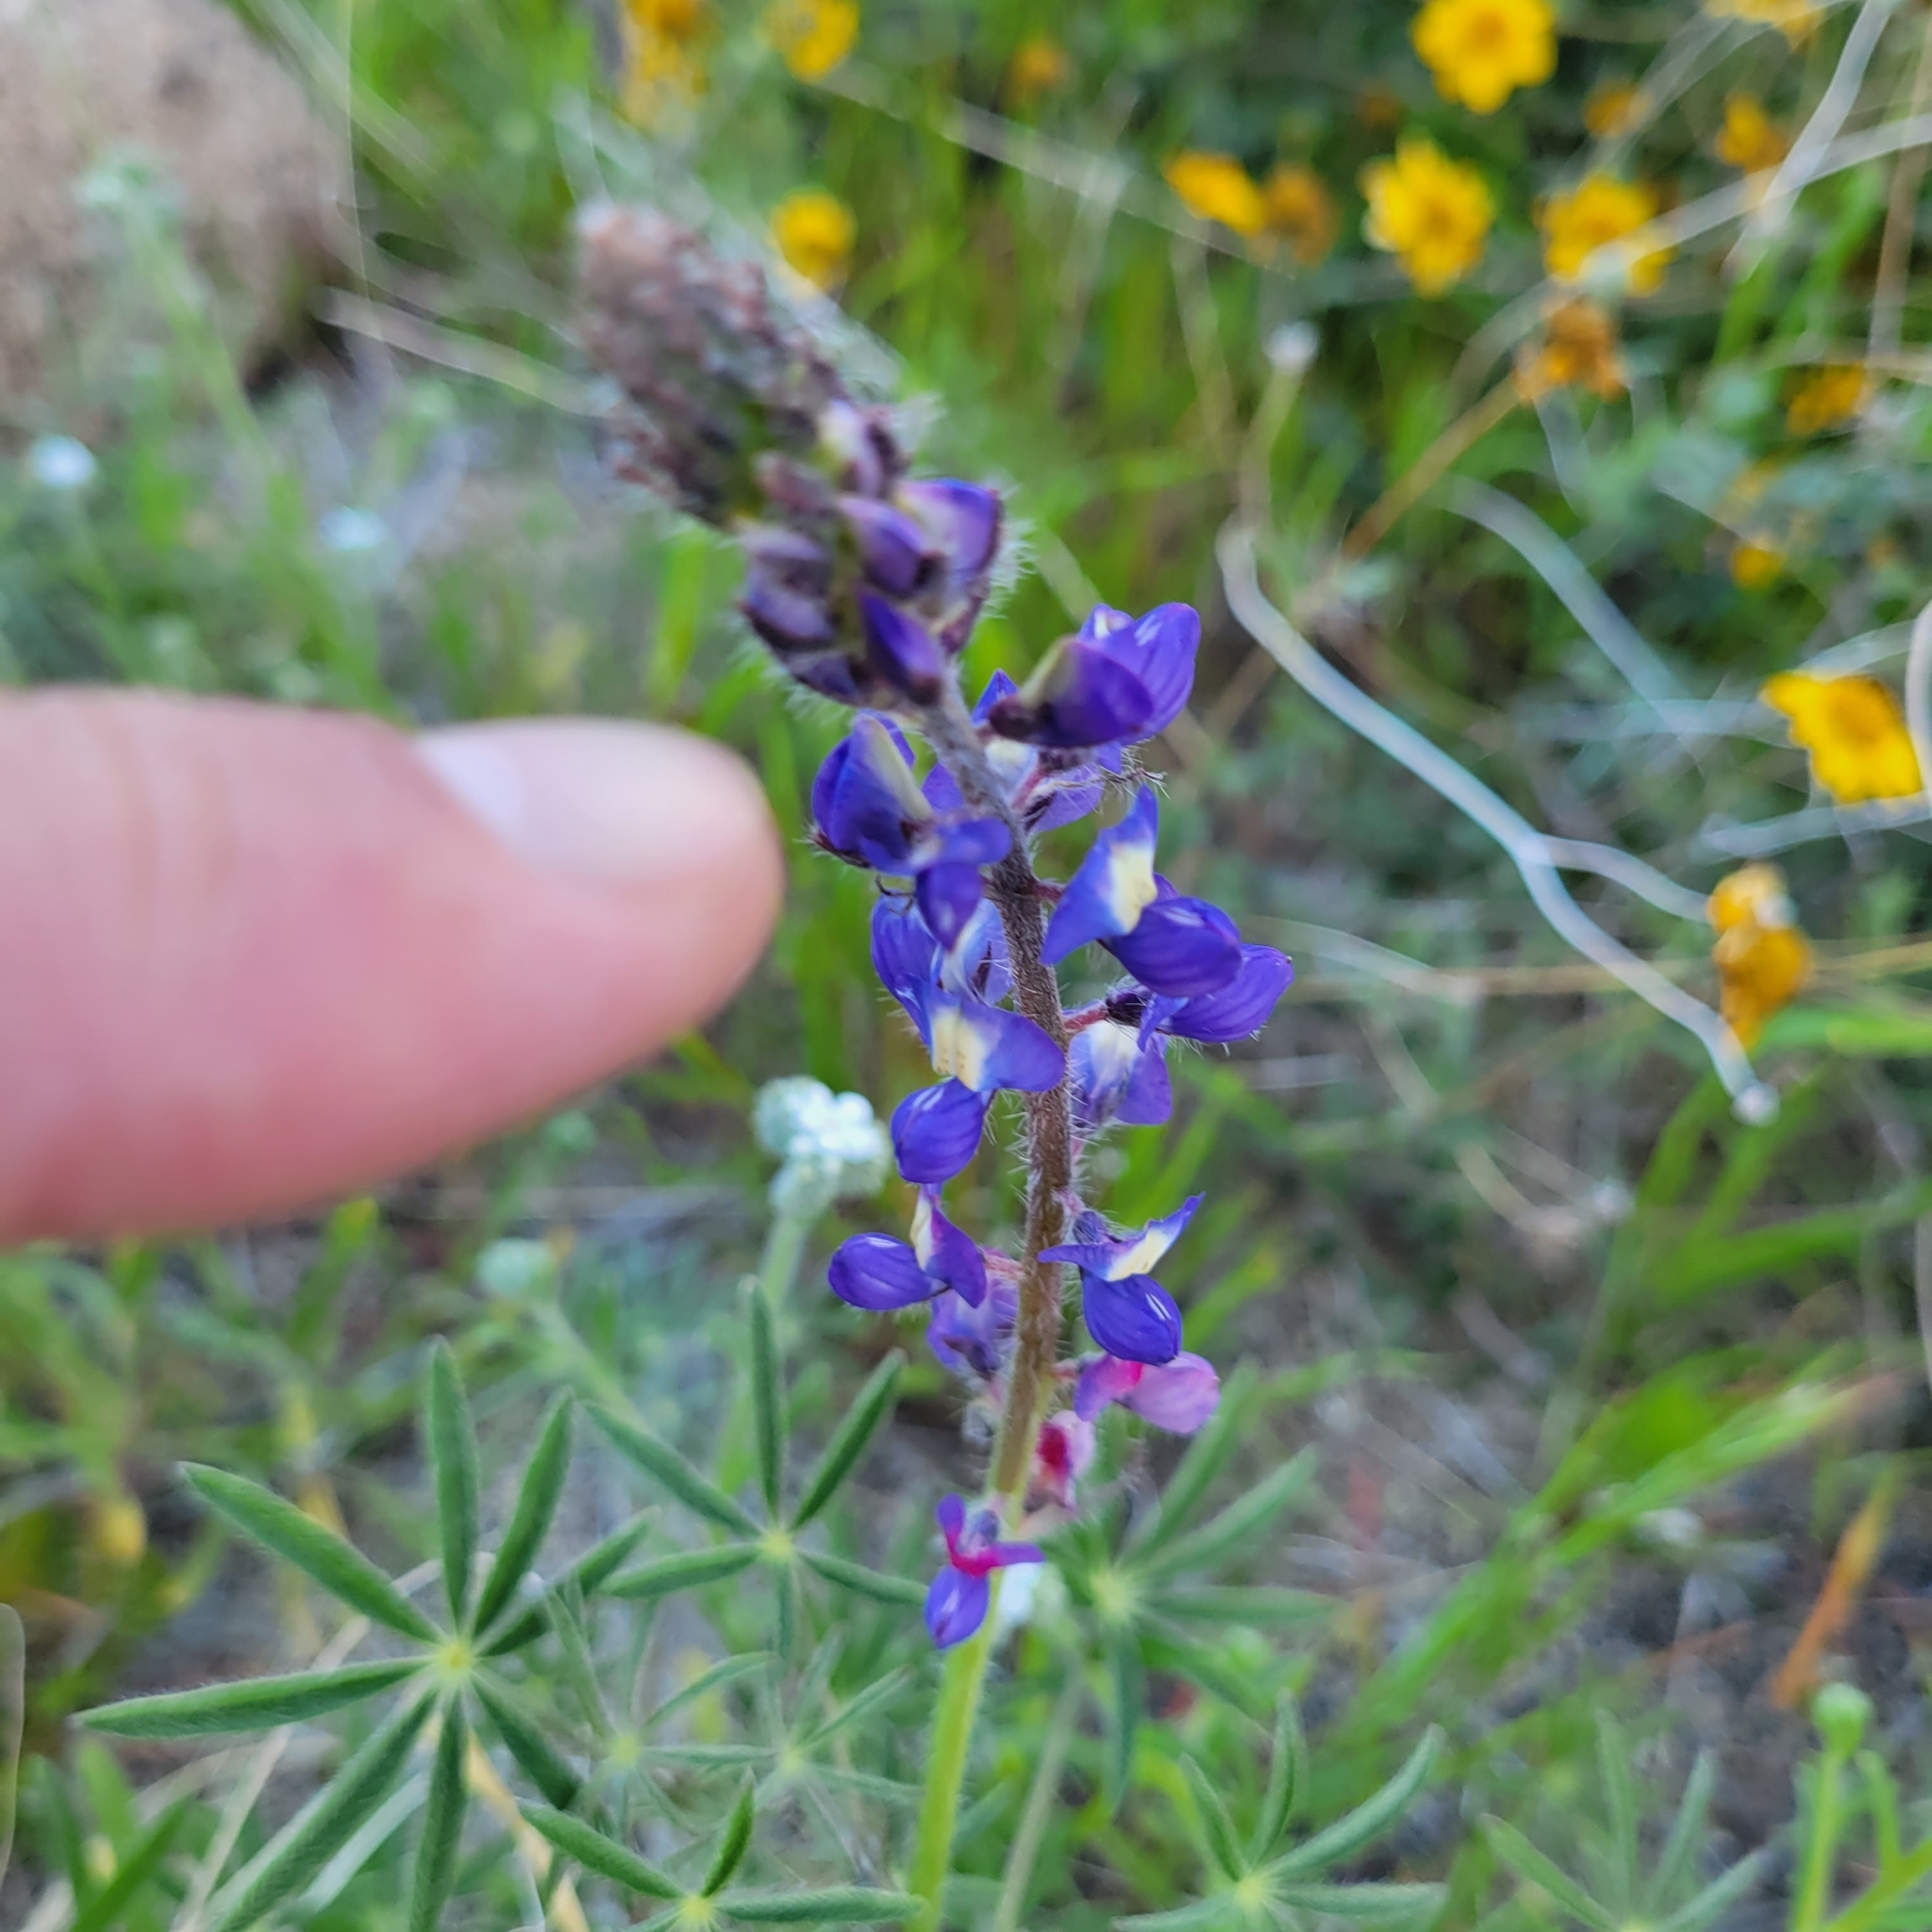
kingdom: Plantae
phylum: Tracheophyta
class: Magnoliopsida
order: Fabales
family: Fabaceae
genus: Lupinus
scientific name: Lupinus sparsiflorus
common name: Coulter's lupine
